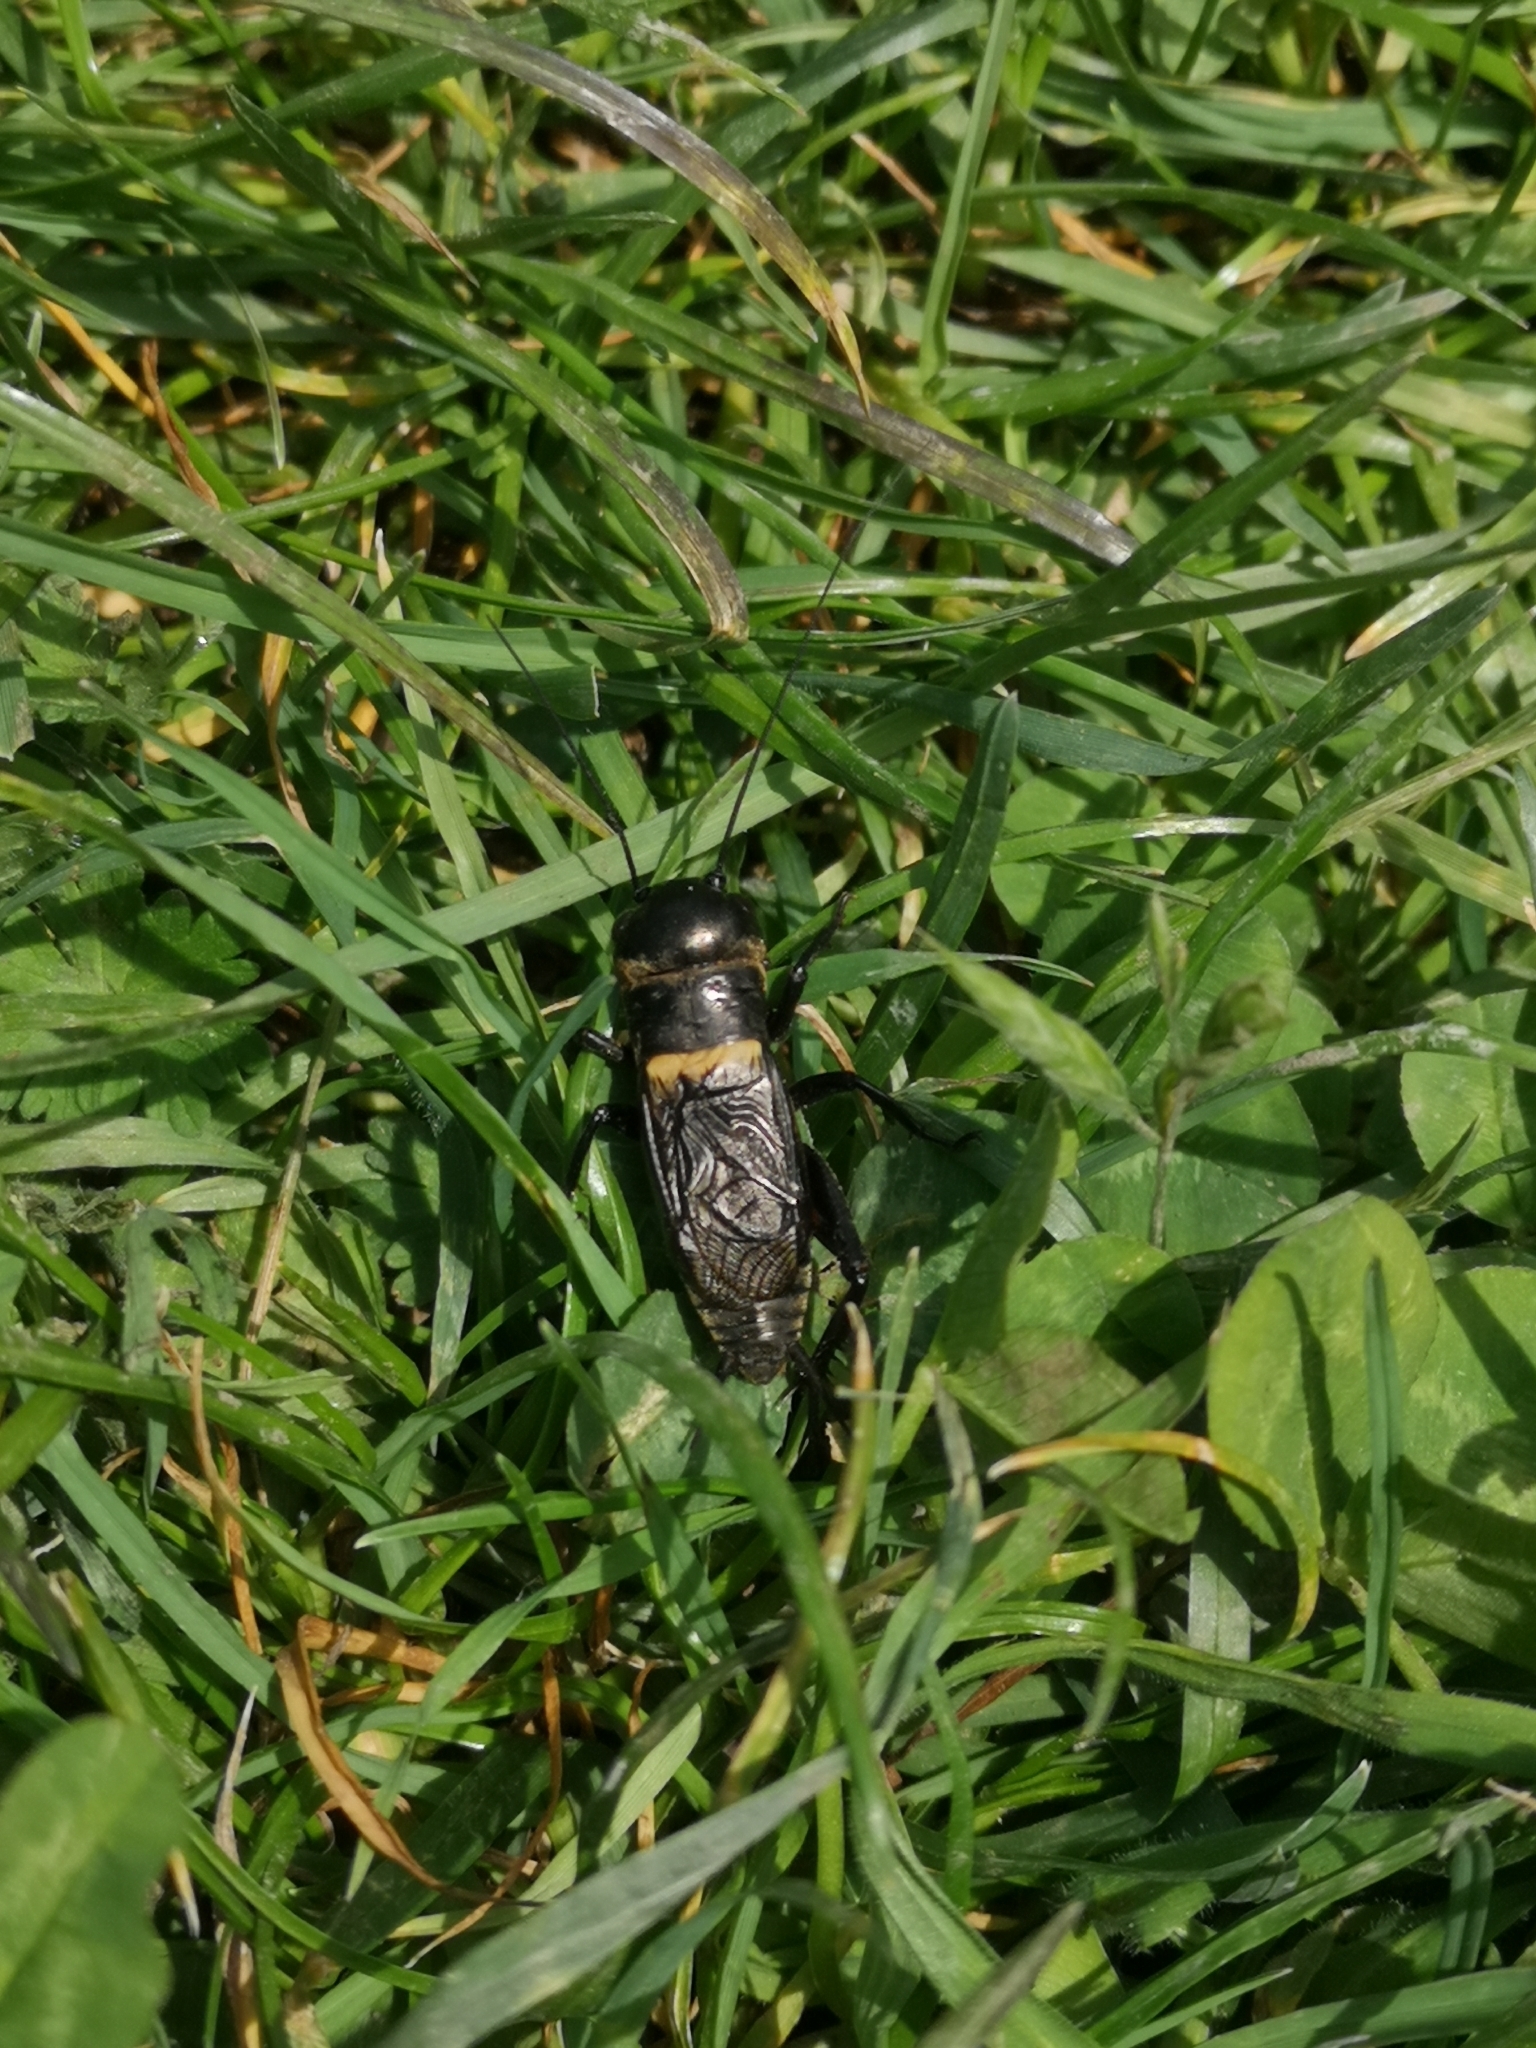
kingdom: Animalia
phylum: Arthropoda
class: Insecta
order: Orthoptera
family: Gryllidae
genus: Gryllus
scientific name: Gryllus campestris
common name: Field cricket
